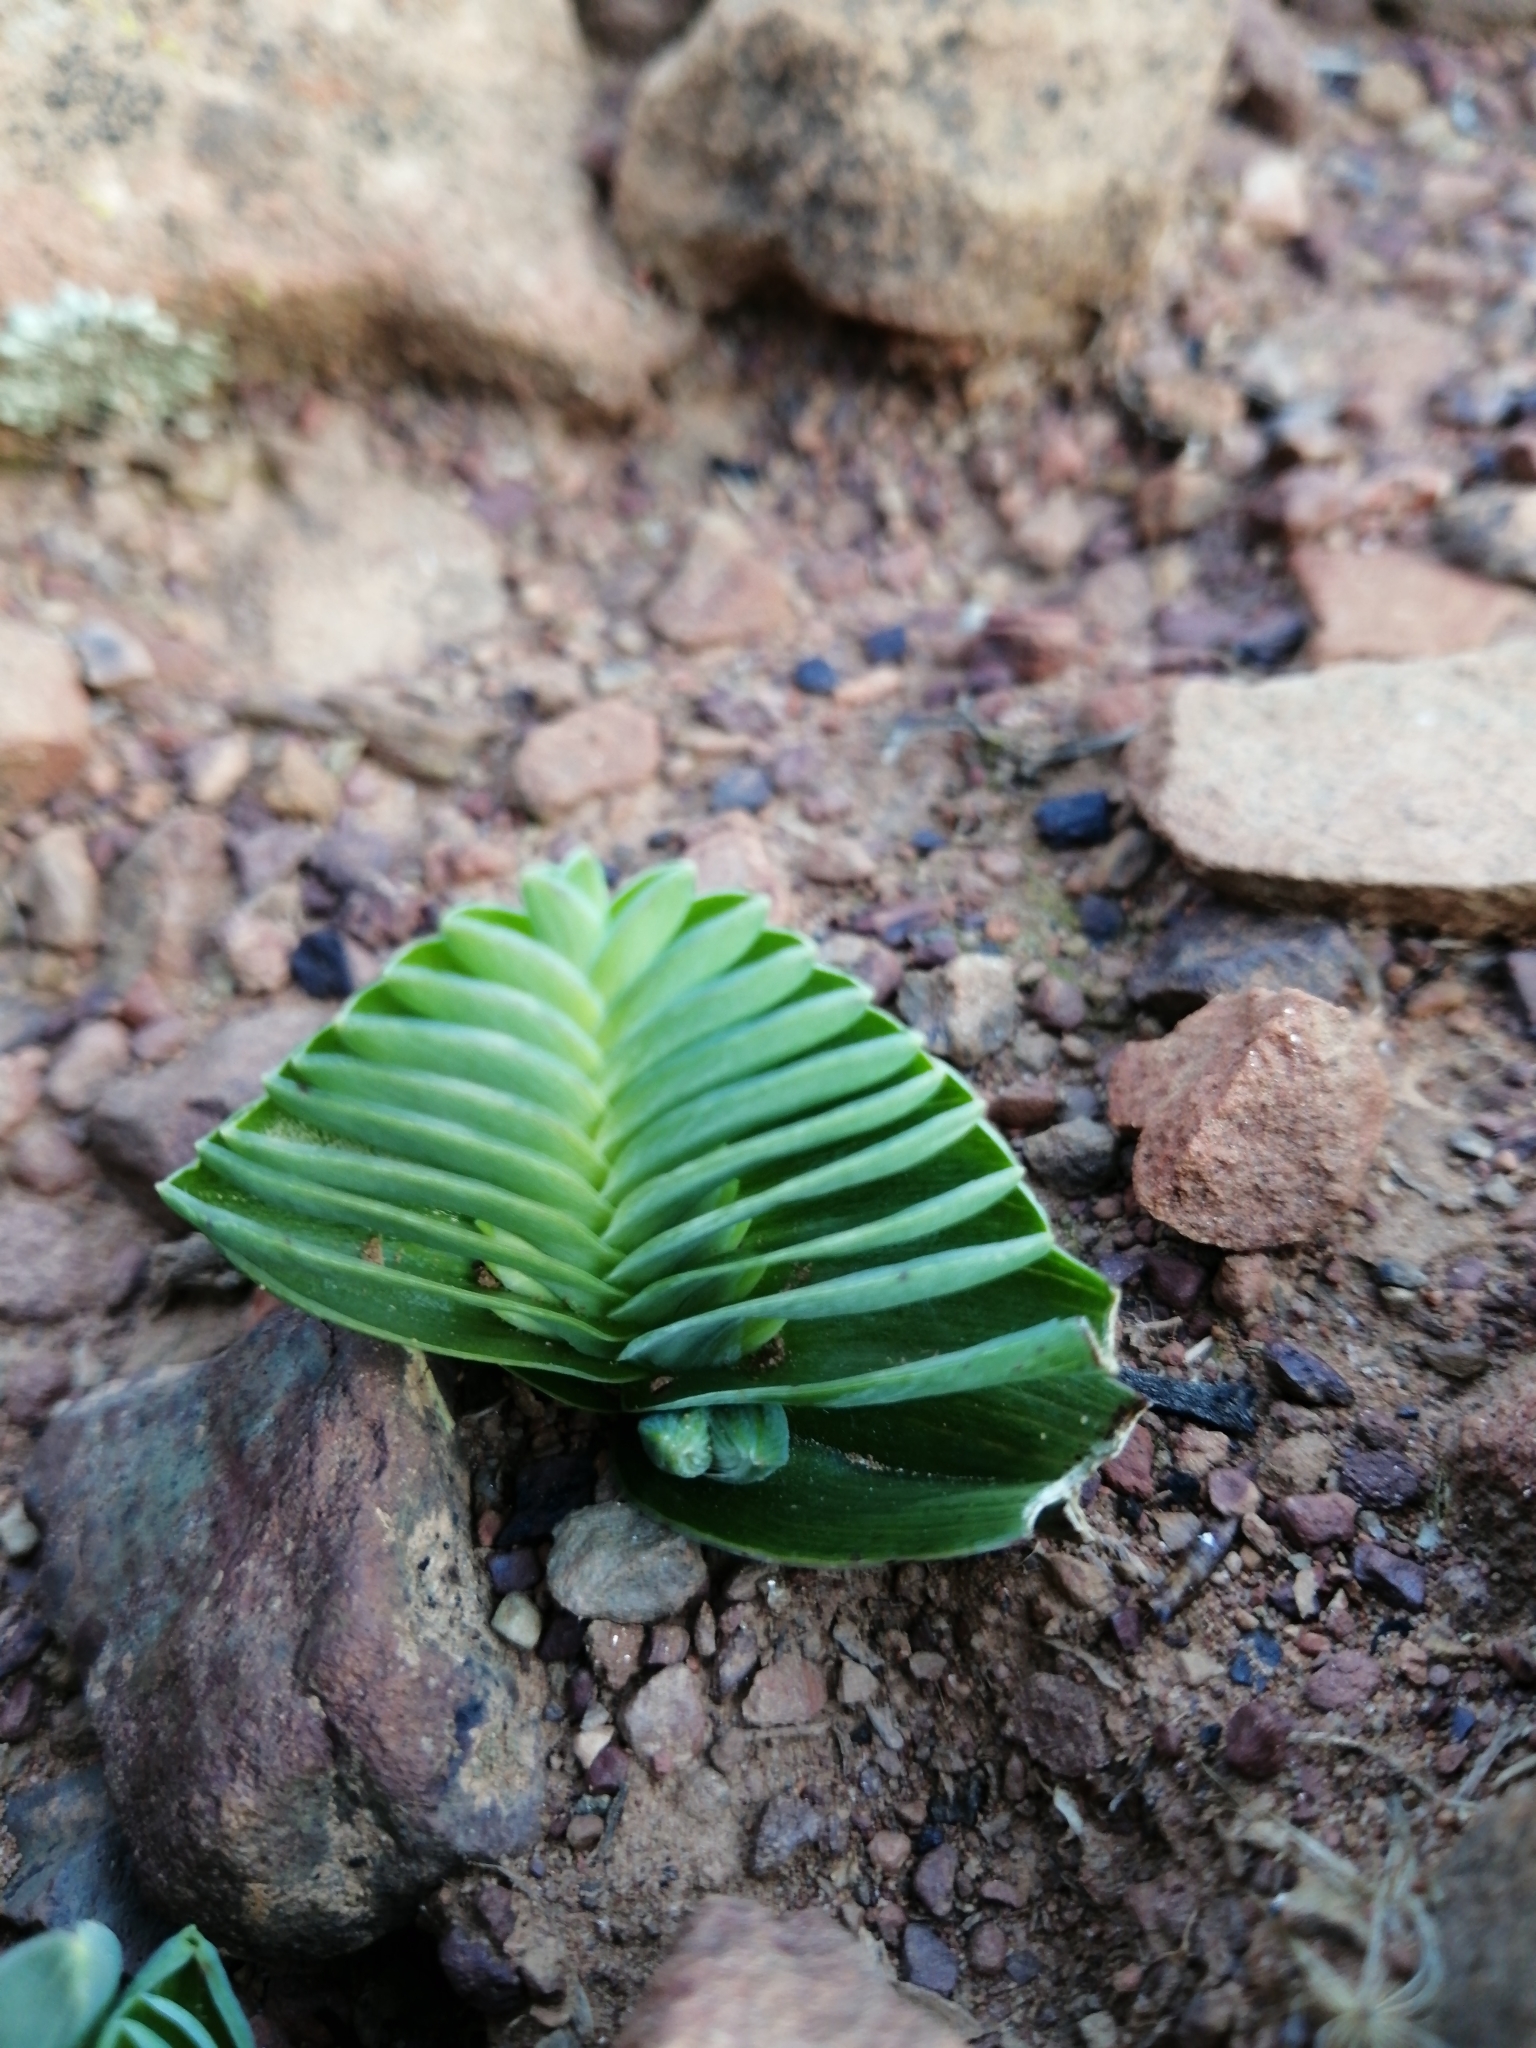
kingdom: Plantae
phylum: Tracheophyta
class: Liliopsida
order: Asparagales
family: Iridaceae
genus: Lapeirousia
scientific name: Lapeirousia pyramidalis
